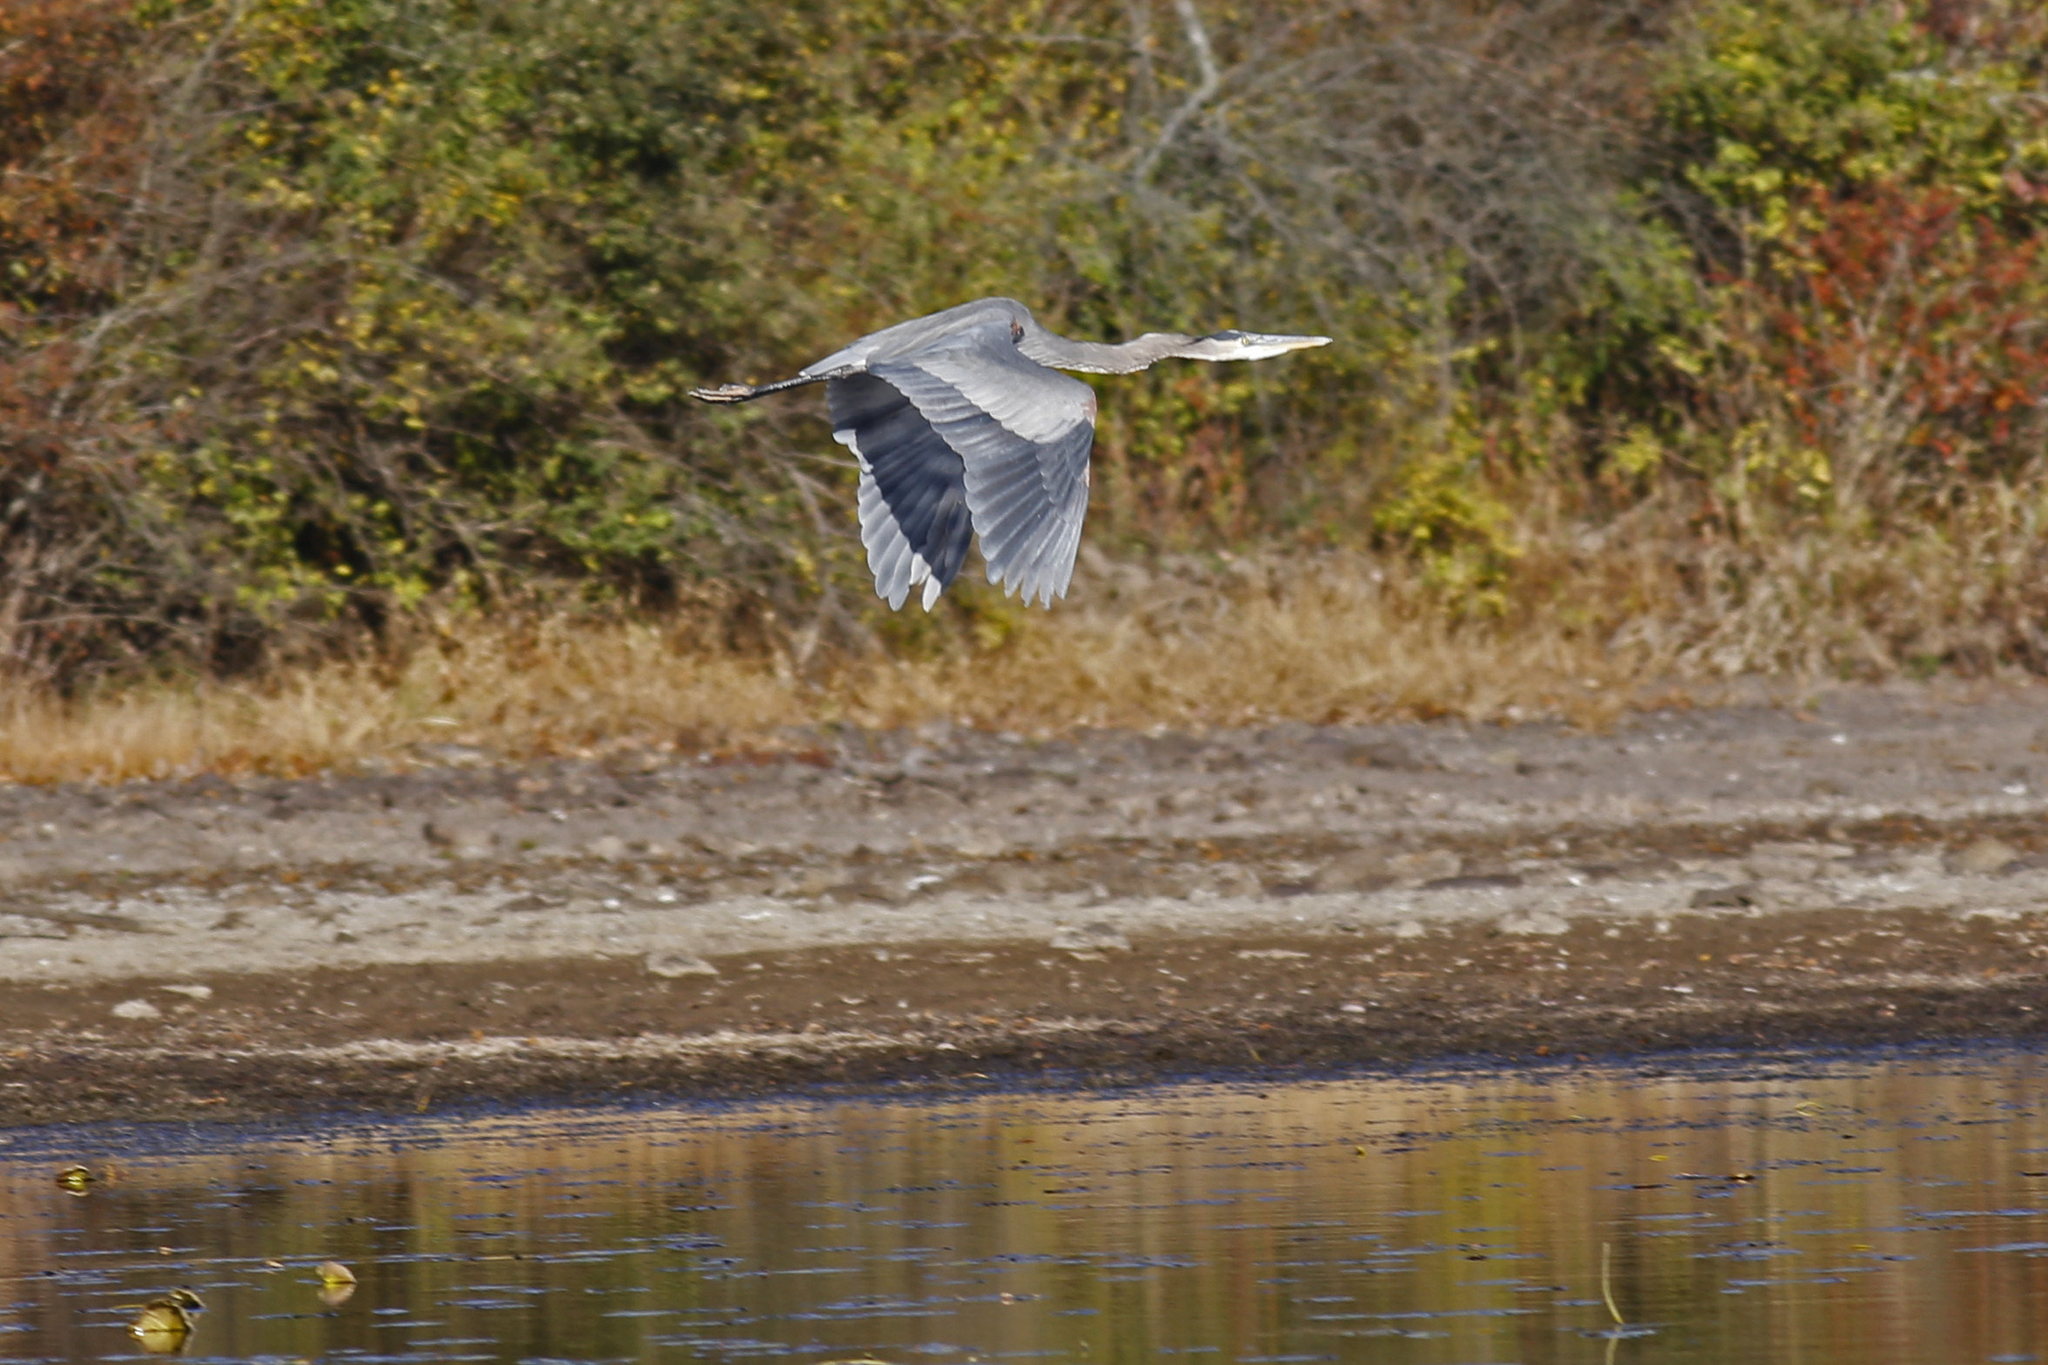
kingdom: Animalia
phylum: Chordata
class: Aves
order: Pelecaniformes
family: Ardeidae
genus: Ardea
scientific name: Ardea herodias
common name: Great blue heron
